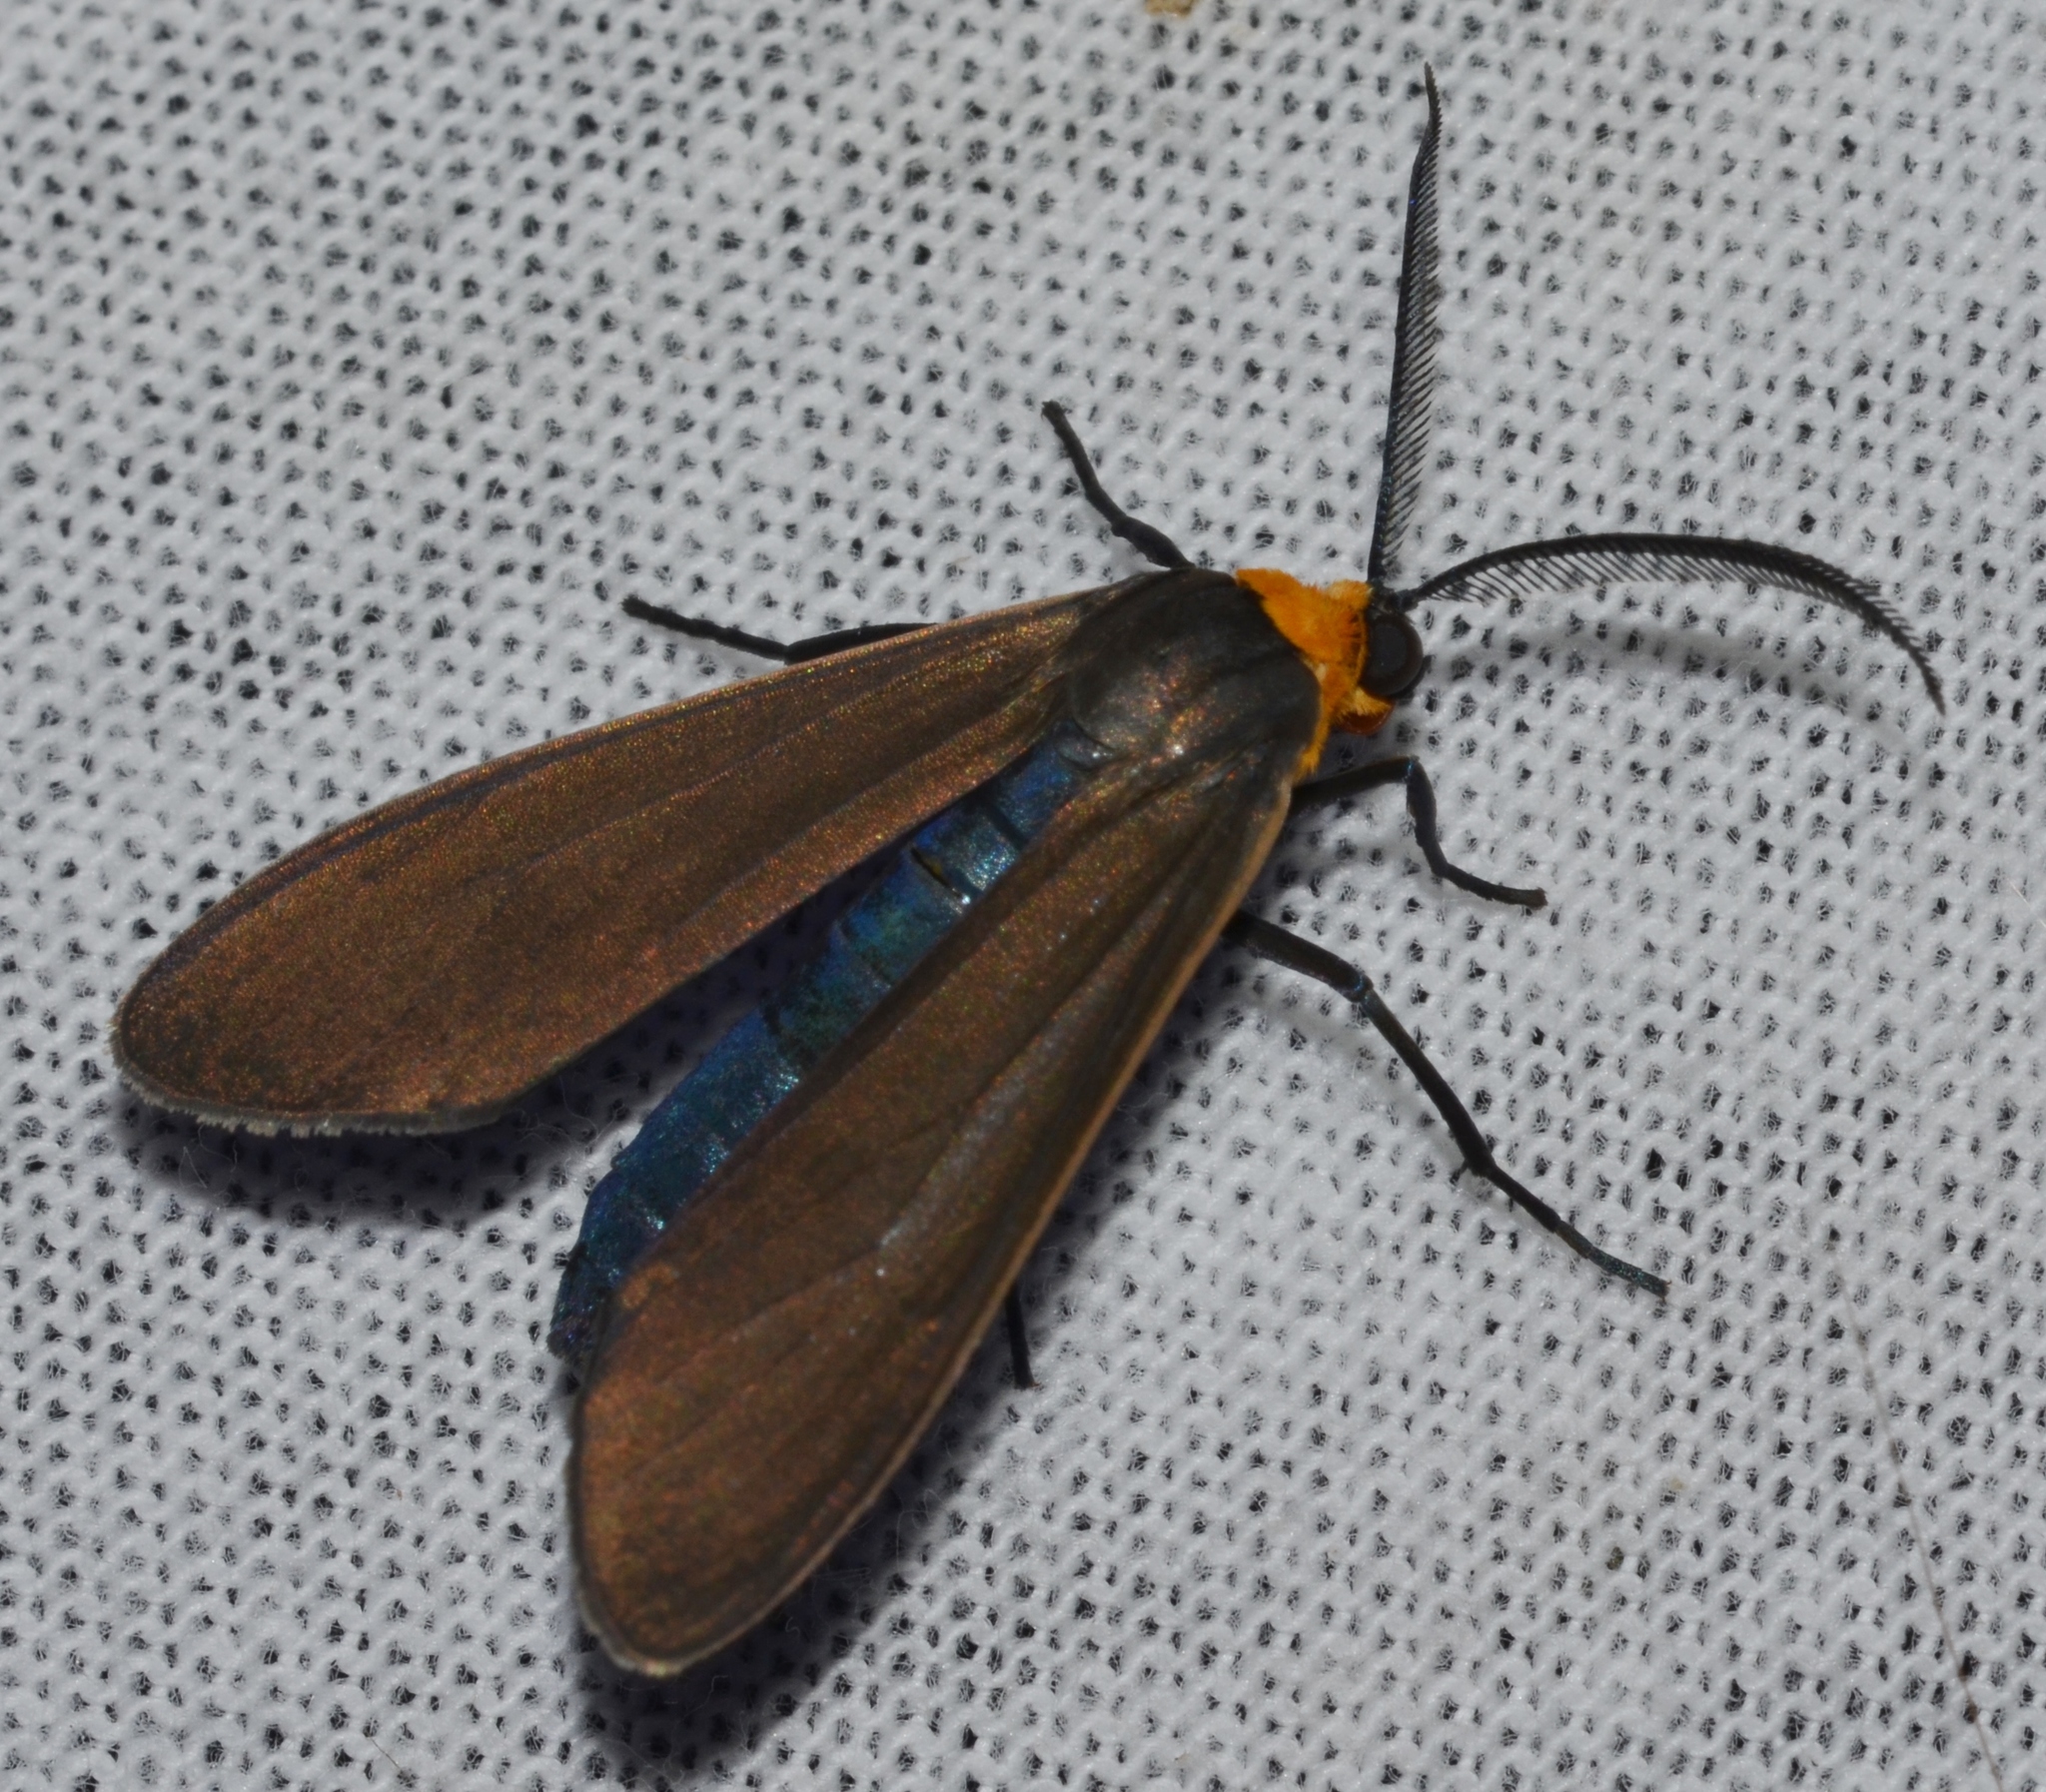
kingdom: Animalia
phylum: Arthropoda
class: Insecta
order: Lepidoptera
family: Erebidae
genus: Cisseps
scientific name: Cisseps fulvicollis
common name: Yellow-collared scape moth
